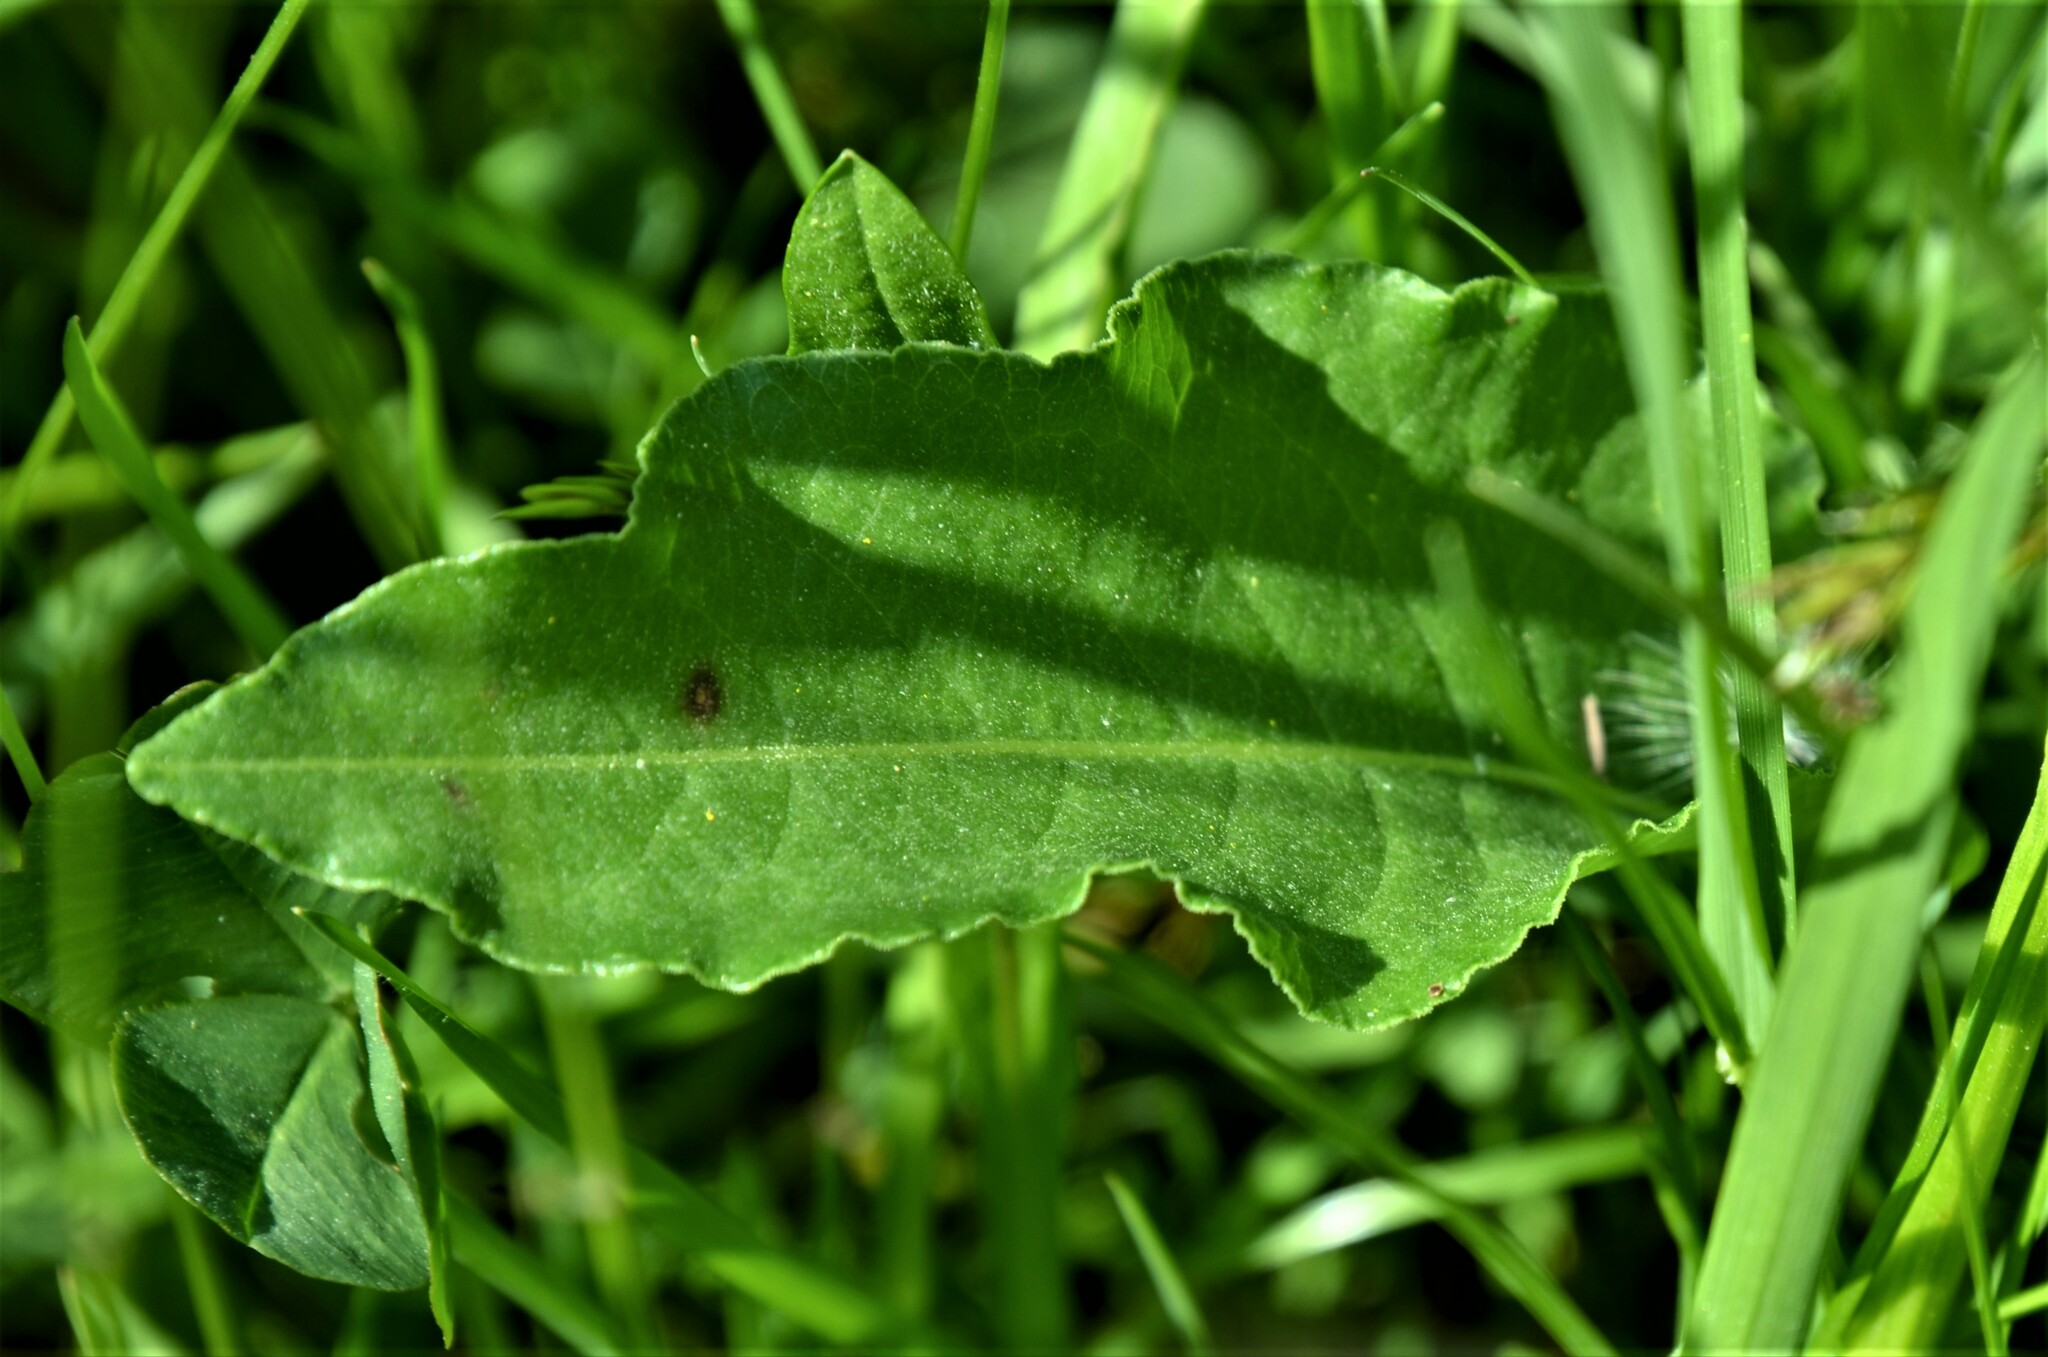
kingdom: Plantae
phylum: Tracheophyta
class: Magnoliopsida
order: Caryophyllales
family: Polygonaceae
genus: Bistorta
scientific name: Bistorta officinalis
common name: Common bistort
